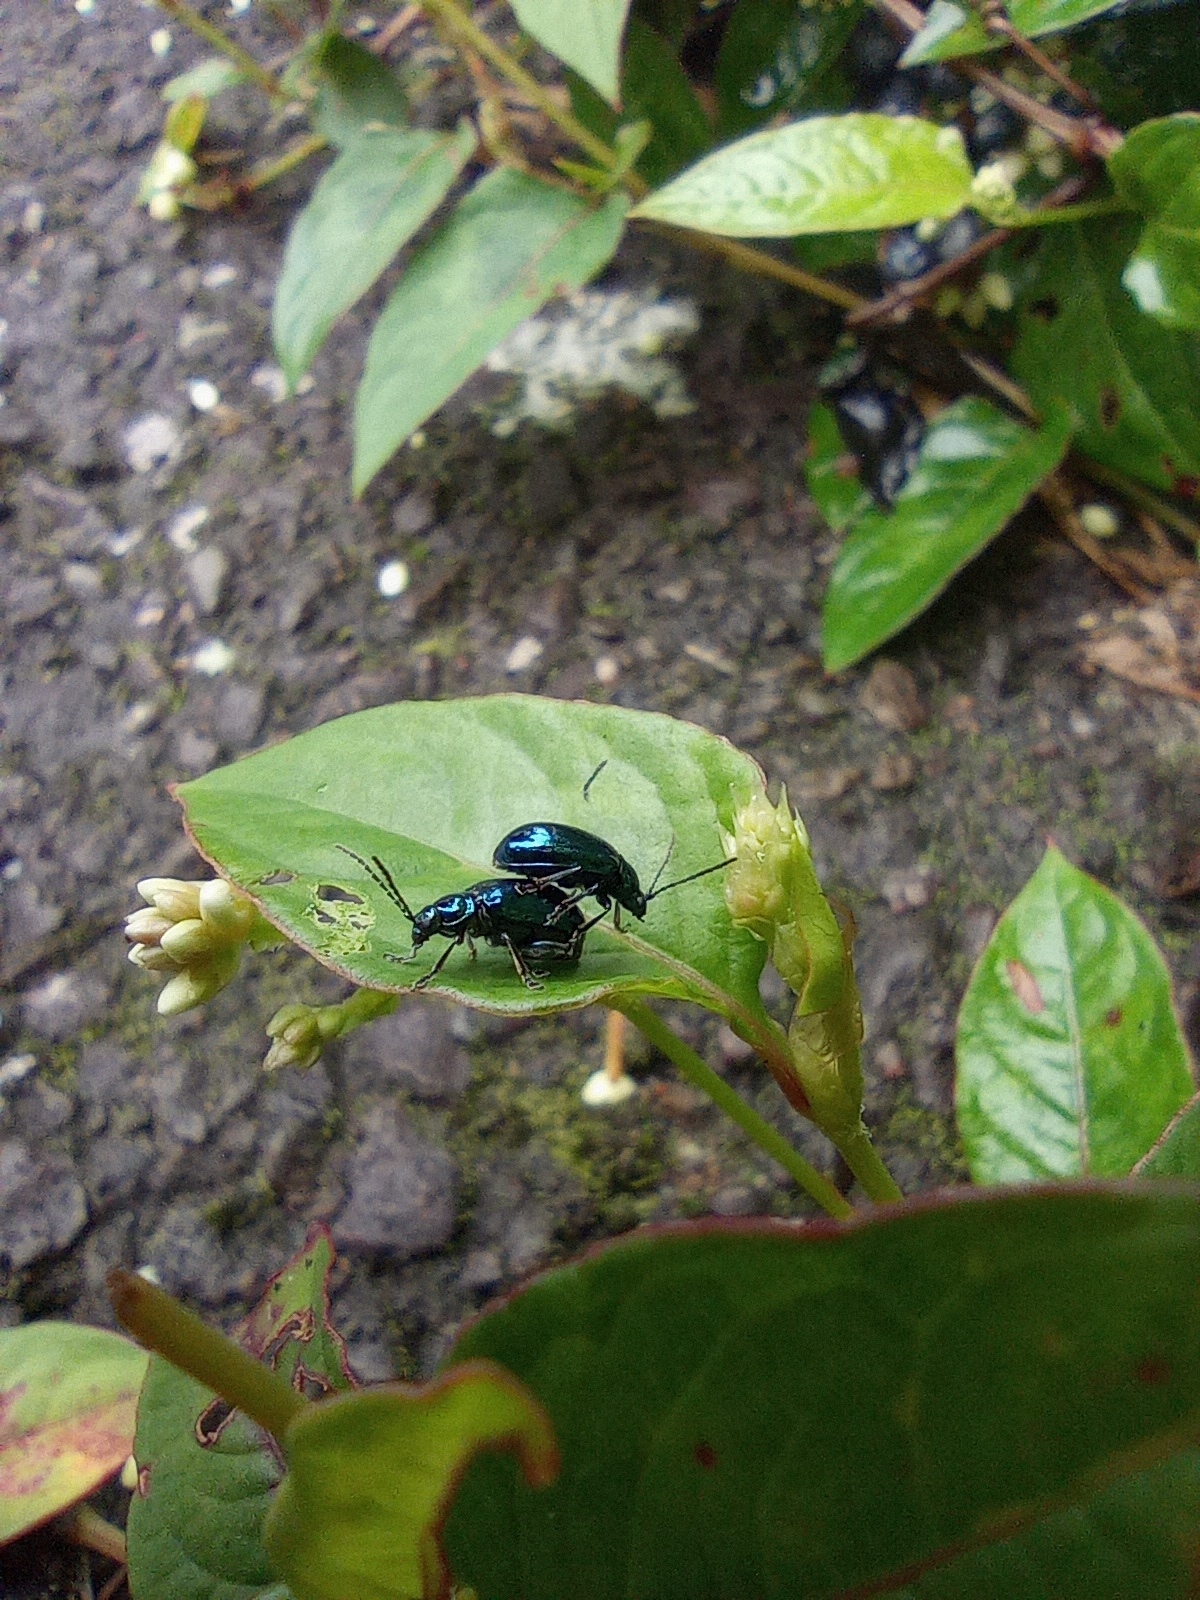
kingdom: Animalia
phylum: Arthropoda
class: Insecta
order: Coleoptera
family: Chrysomelidae
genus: Altica
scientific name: Altica birmanensis
